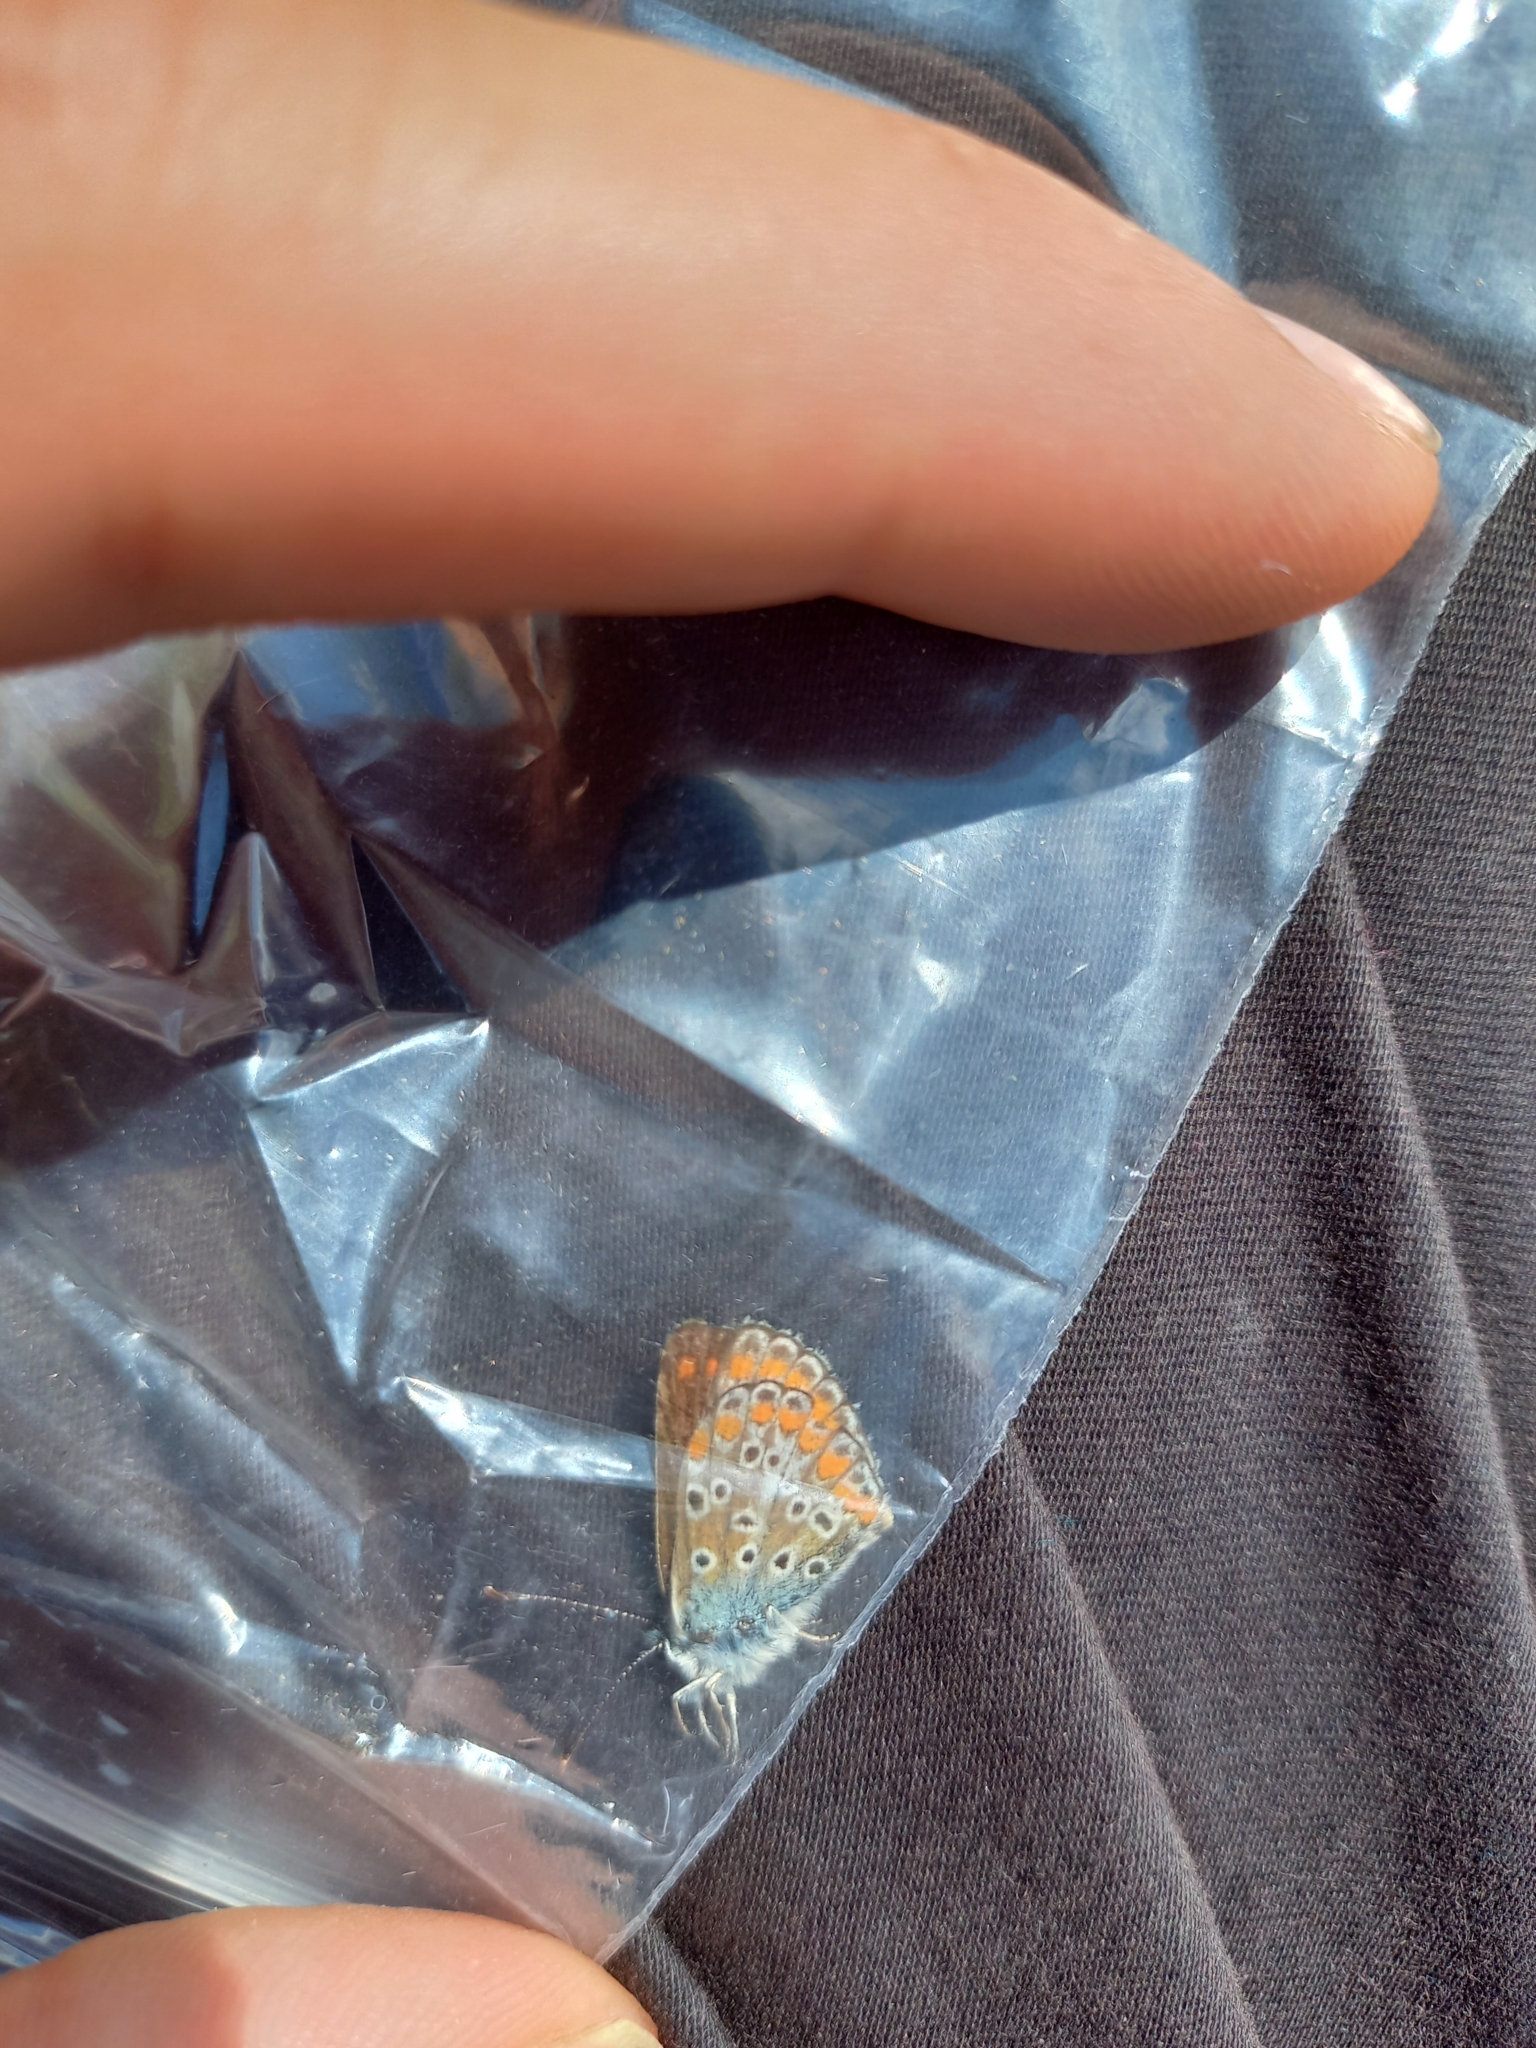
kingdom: Animalia
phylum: Arthropoda
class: Insecta
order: Lepidoptera
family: Lycaenidae
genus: Aricia
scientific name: Aricia agestis
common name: Brown argus
